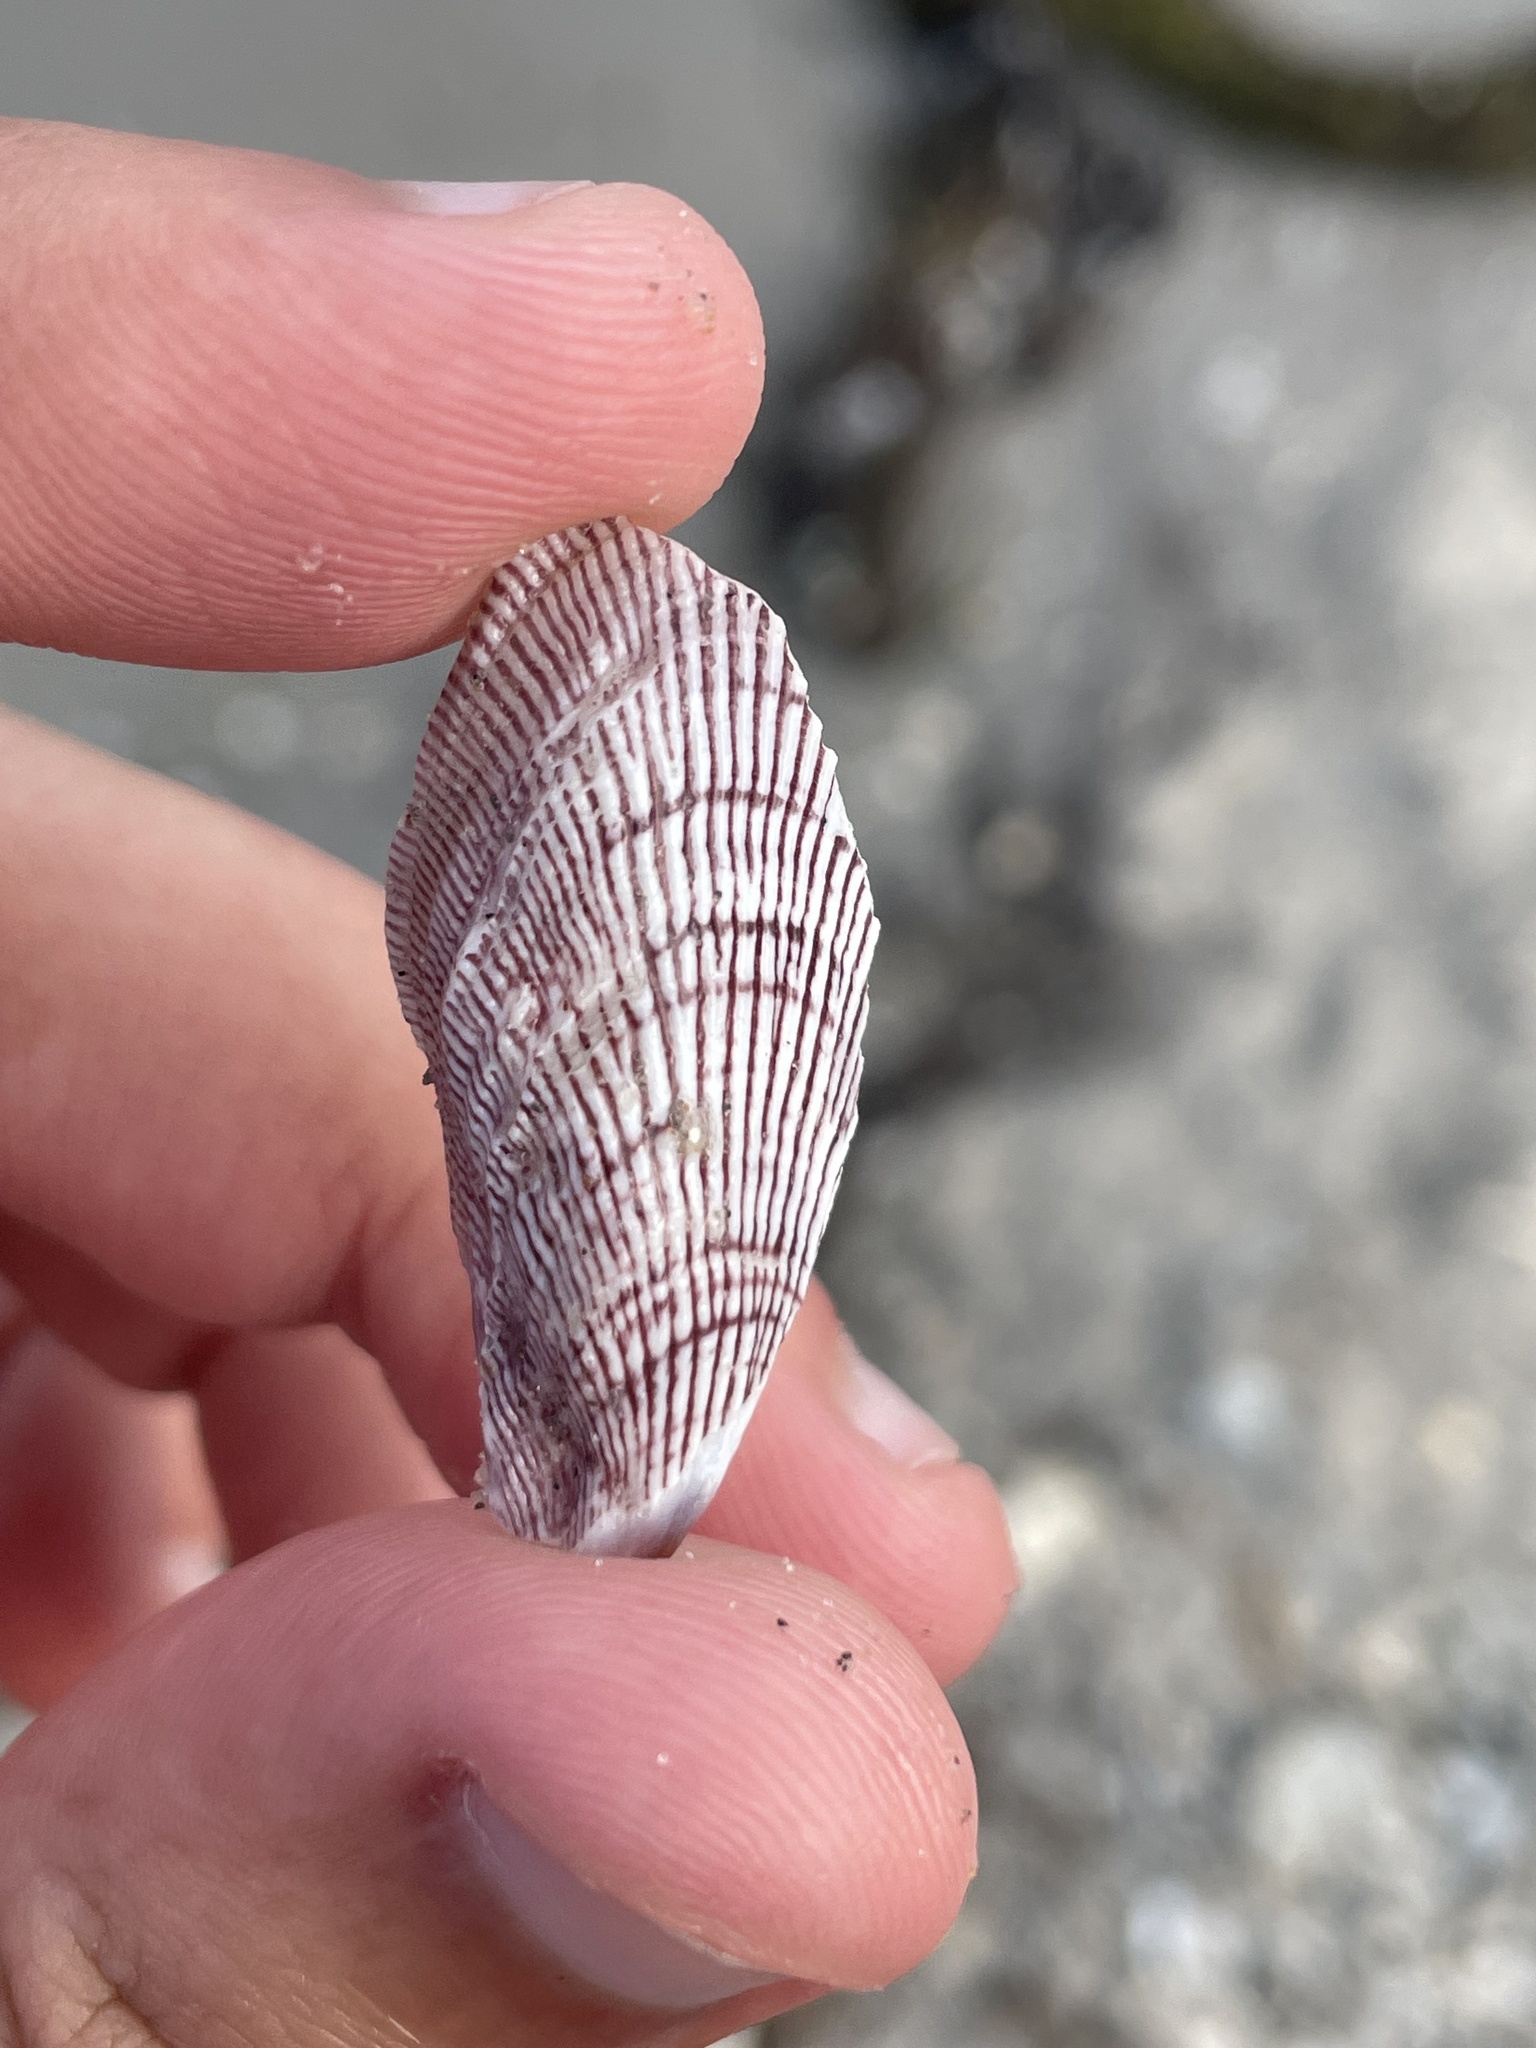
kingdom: Animalia
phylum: Mollusca
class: Bivalvia
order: Mytilida
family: Mytilidae
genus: Ischadium
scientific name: Ischadium recurvum
